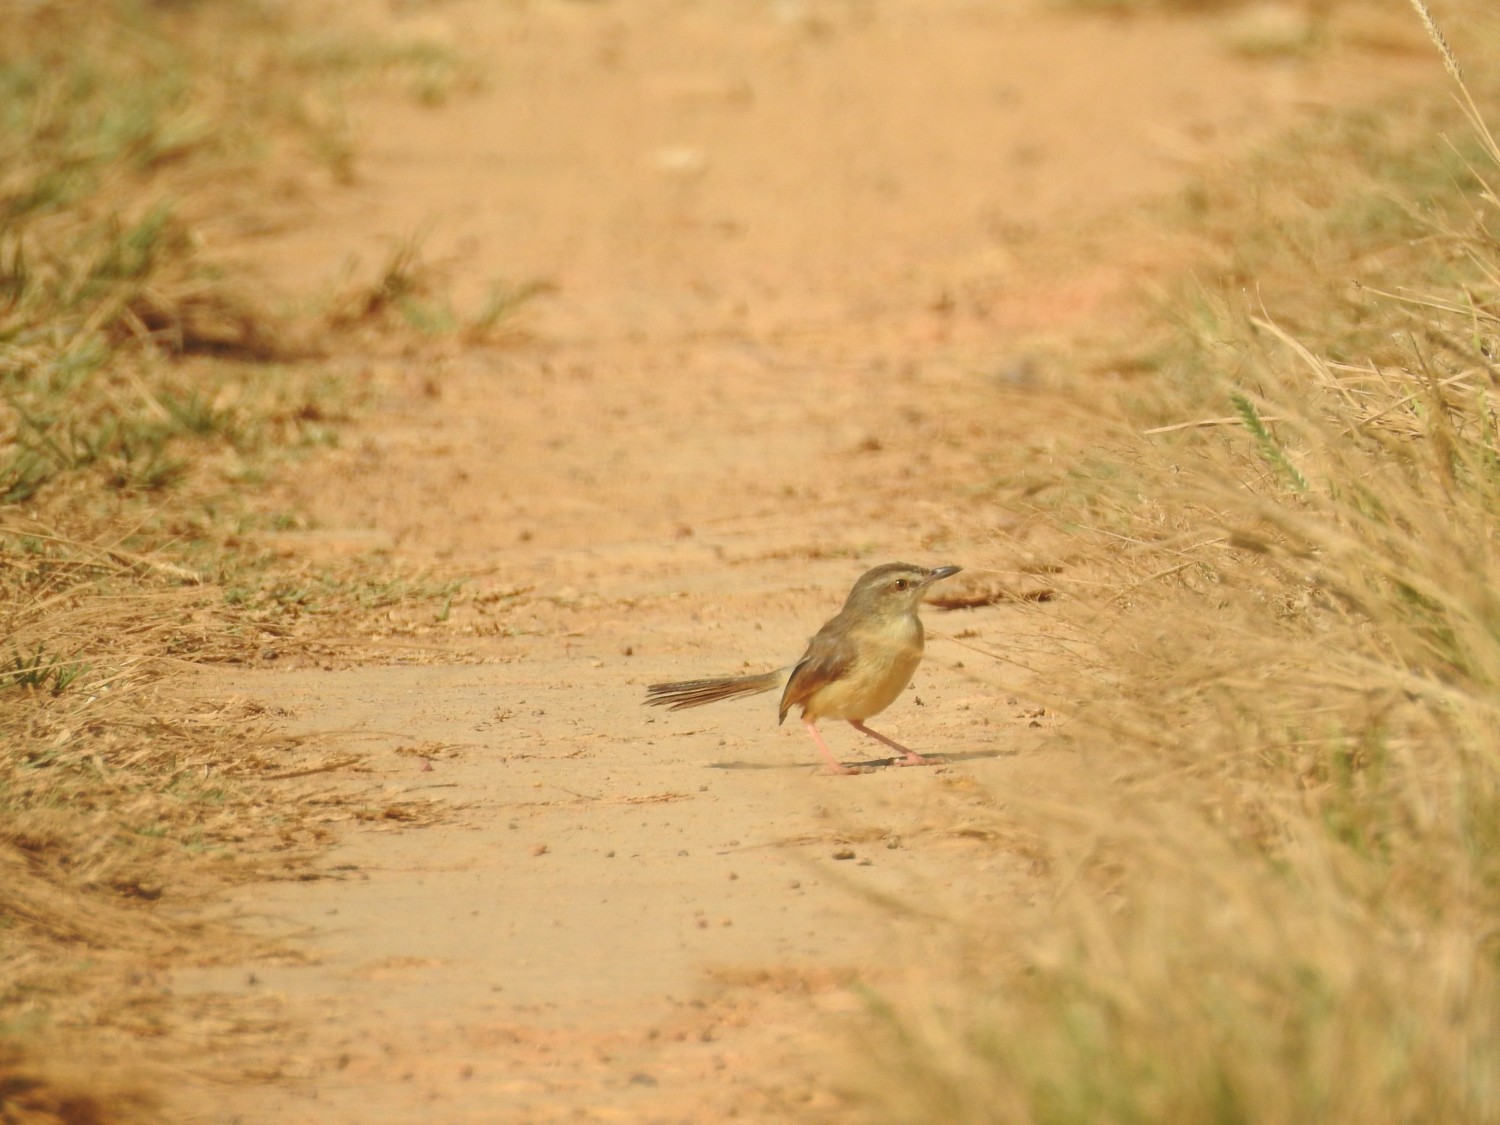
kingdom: Animalia
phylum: Chordata
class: Aves
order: Passeriformes
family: Cisticolidae
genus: Prinia
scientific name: Prinia inornata
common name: Plain prinia
